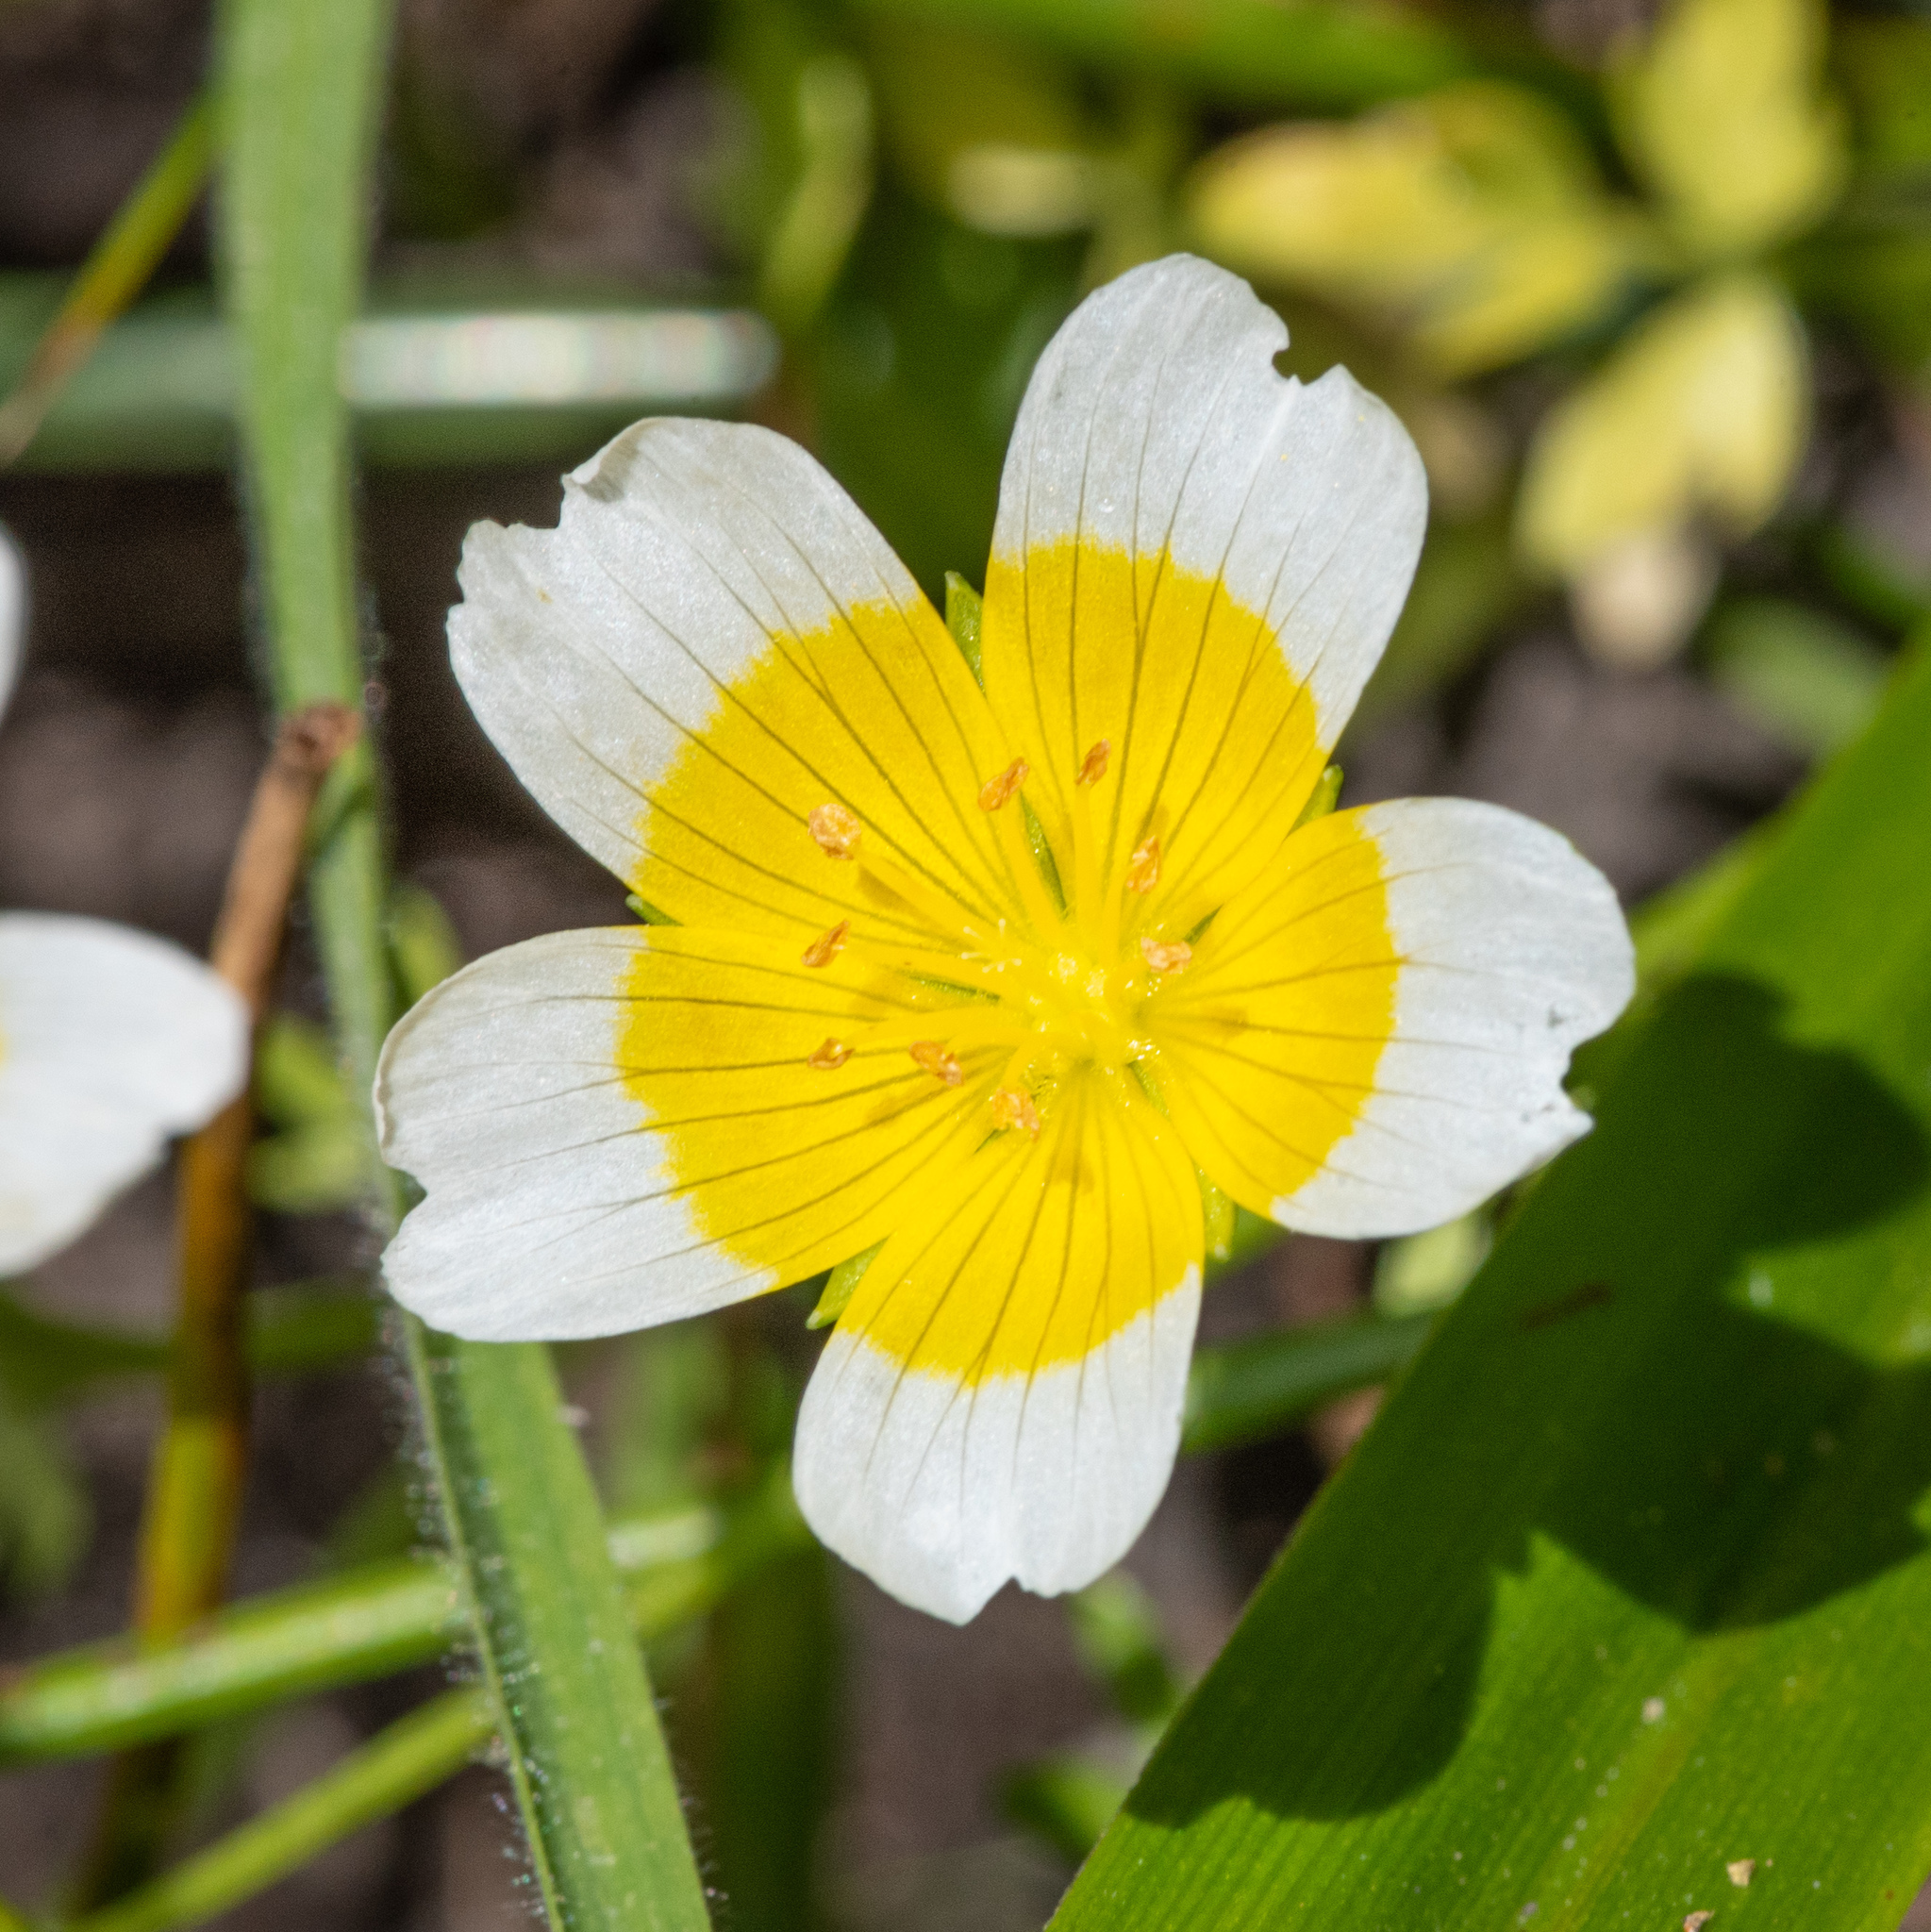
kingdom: Plantae
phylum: Tracheophyta
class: Magnoliopsida
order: Brassicales
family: Limnanthaceae
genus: Limnanthes
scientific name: Limnanthes douglasii
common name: Meadow-foam
